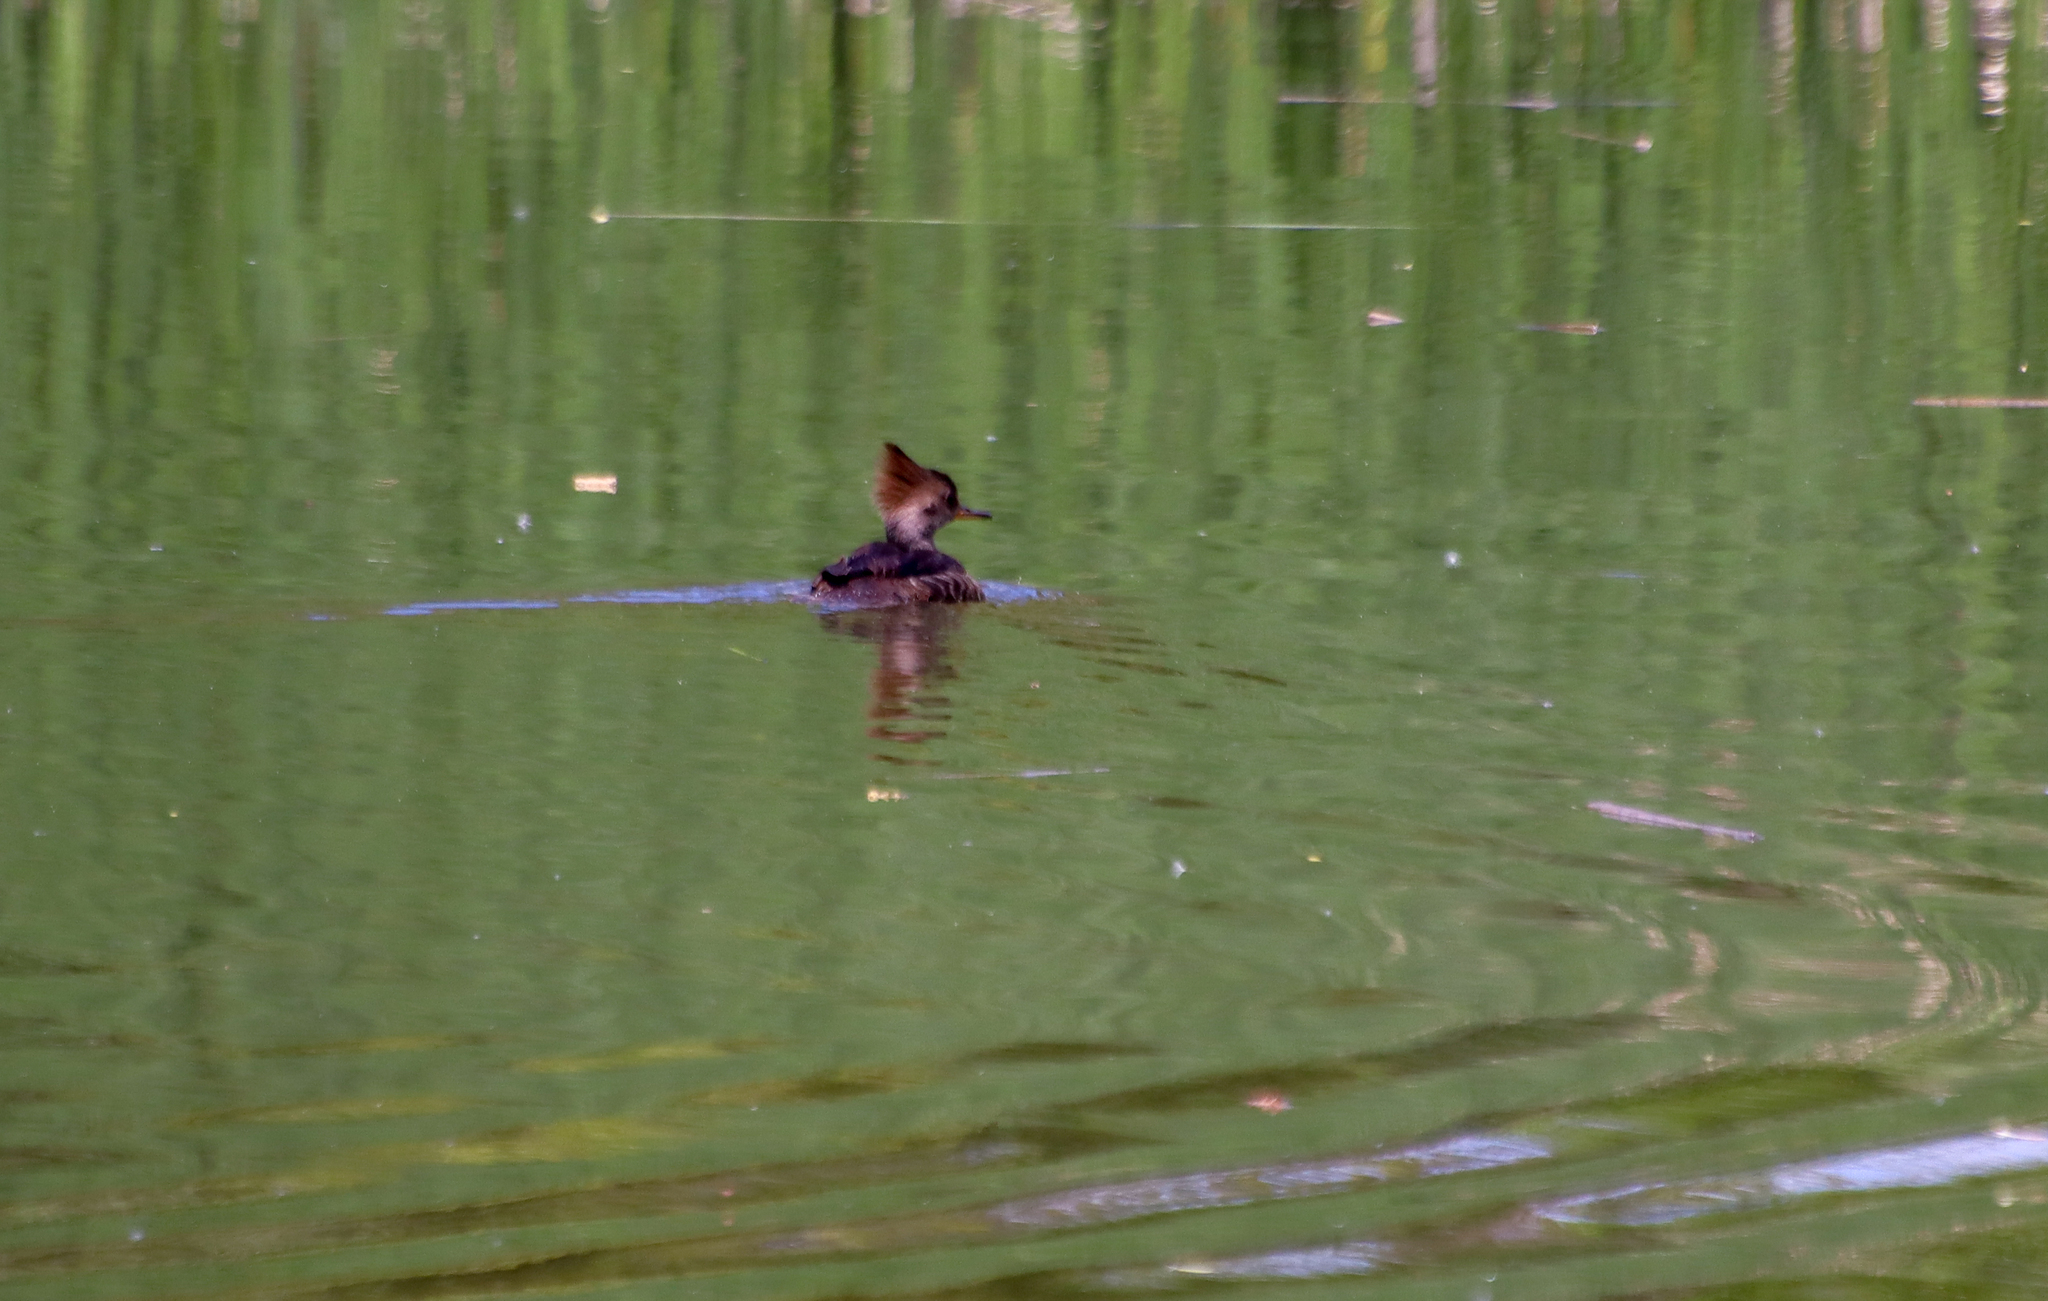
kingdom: Animalia
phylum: Chordata
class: Aves
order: Anseriformes
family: Anatidae
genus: Lophodytes
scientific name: Lophodytes cucullatus
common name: Hooded merganser
